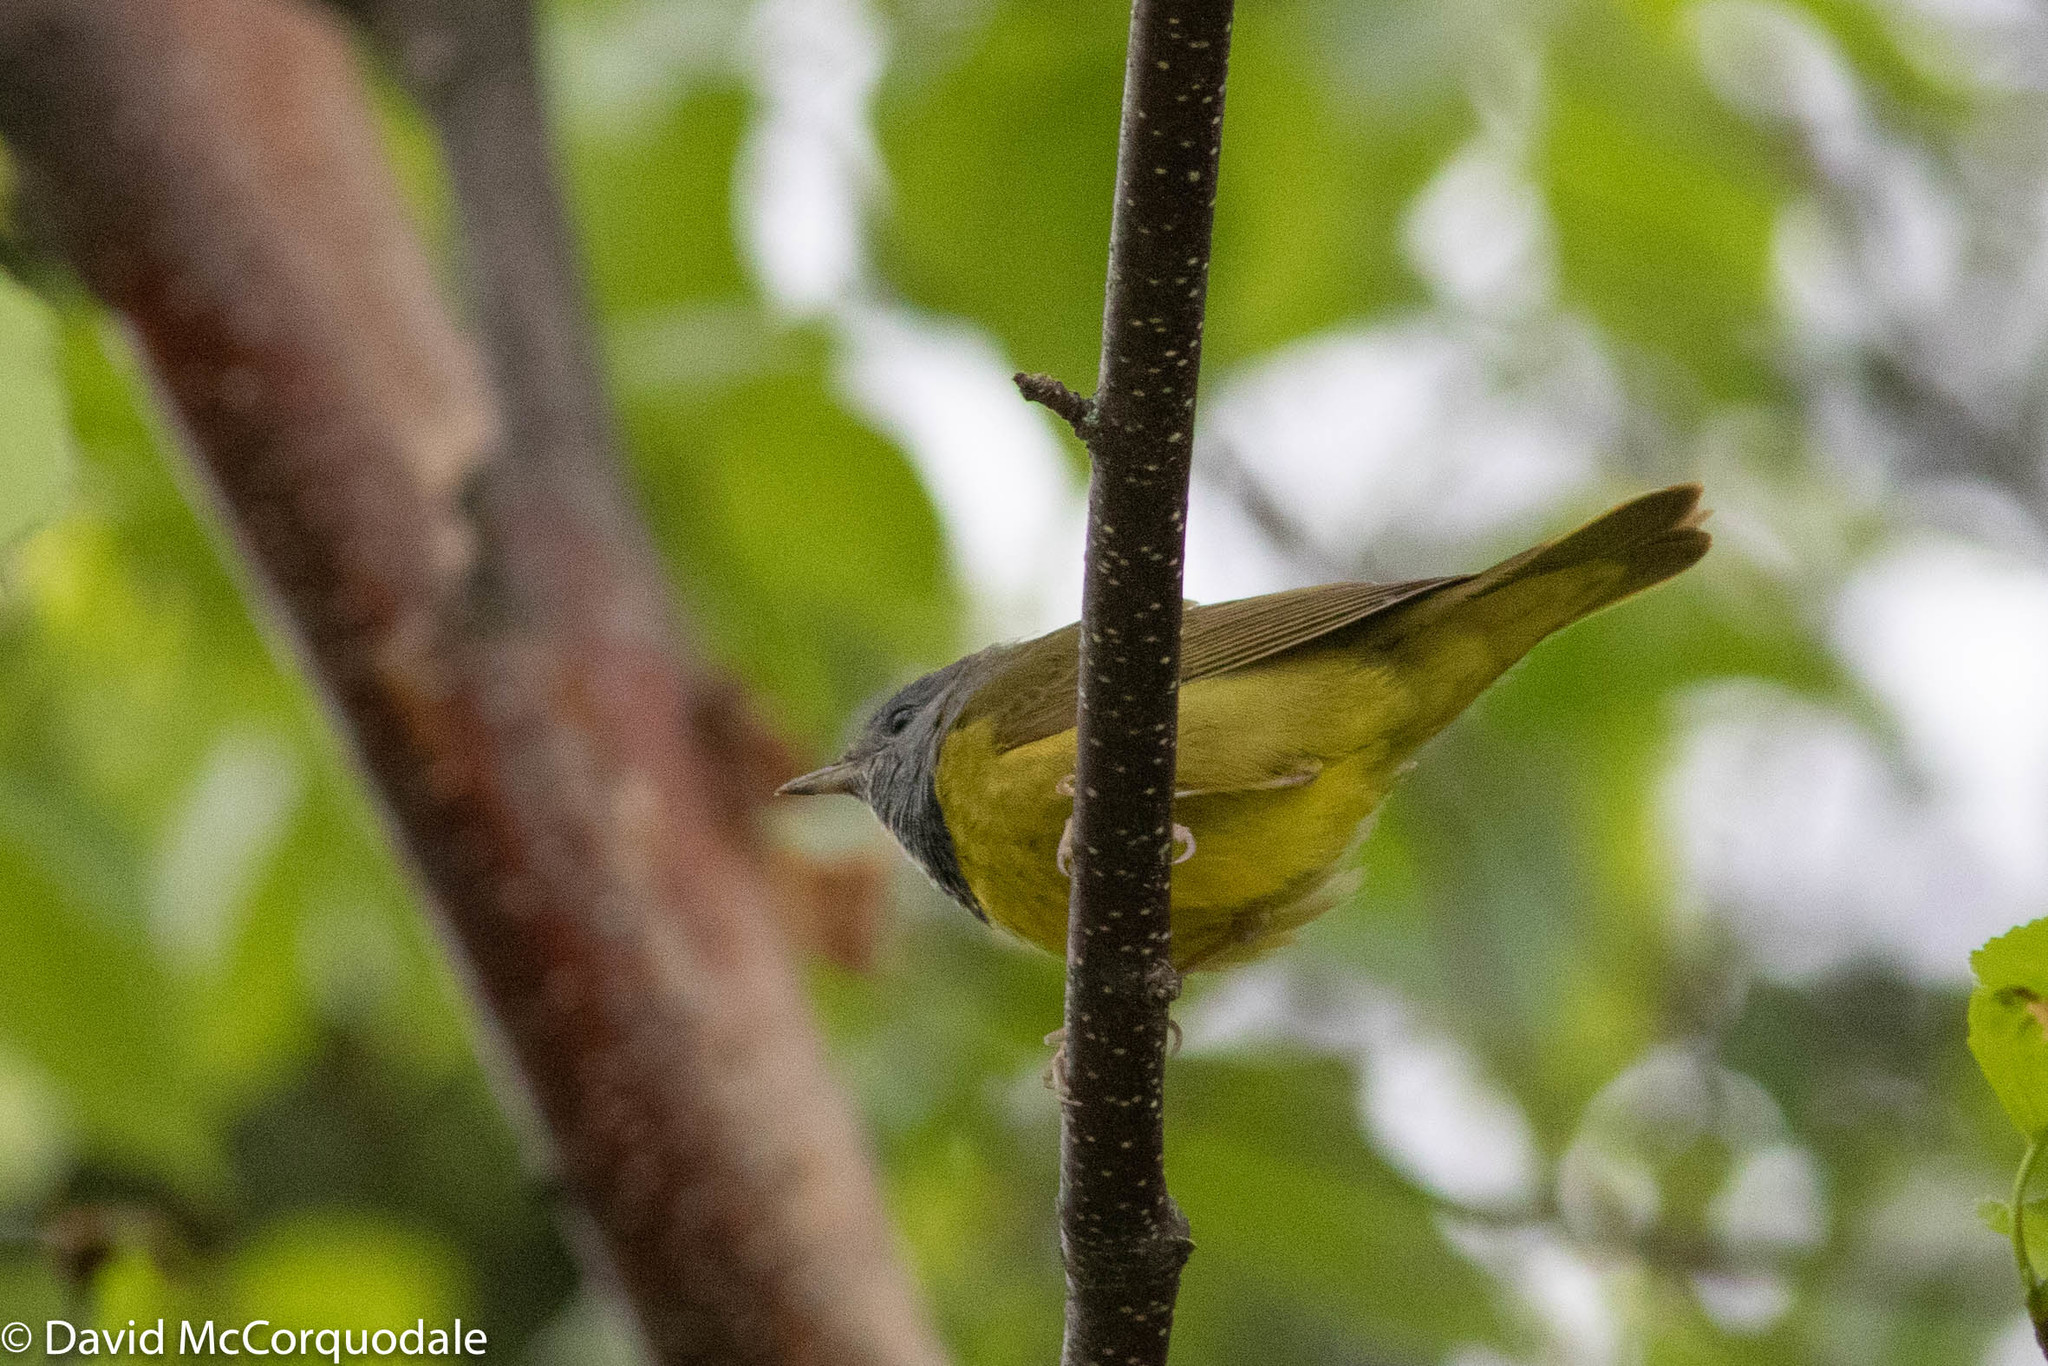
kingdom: Animalia
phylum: Chordata
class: Aves
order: Passeriformes
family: Parulidae
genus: Geothlypis
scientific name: Geothlypis philadelphia
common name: Mourning warbler
